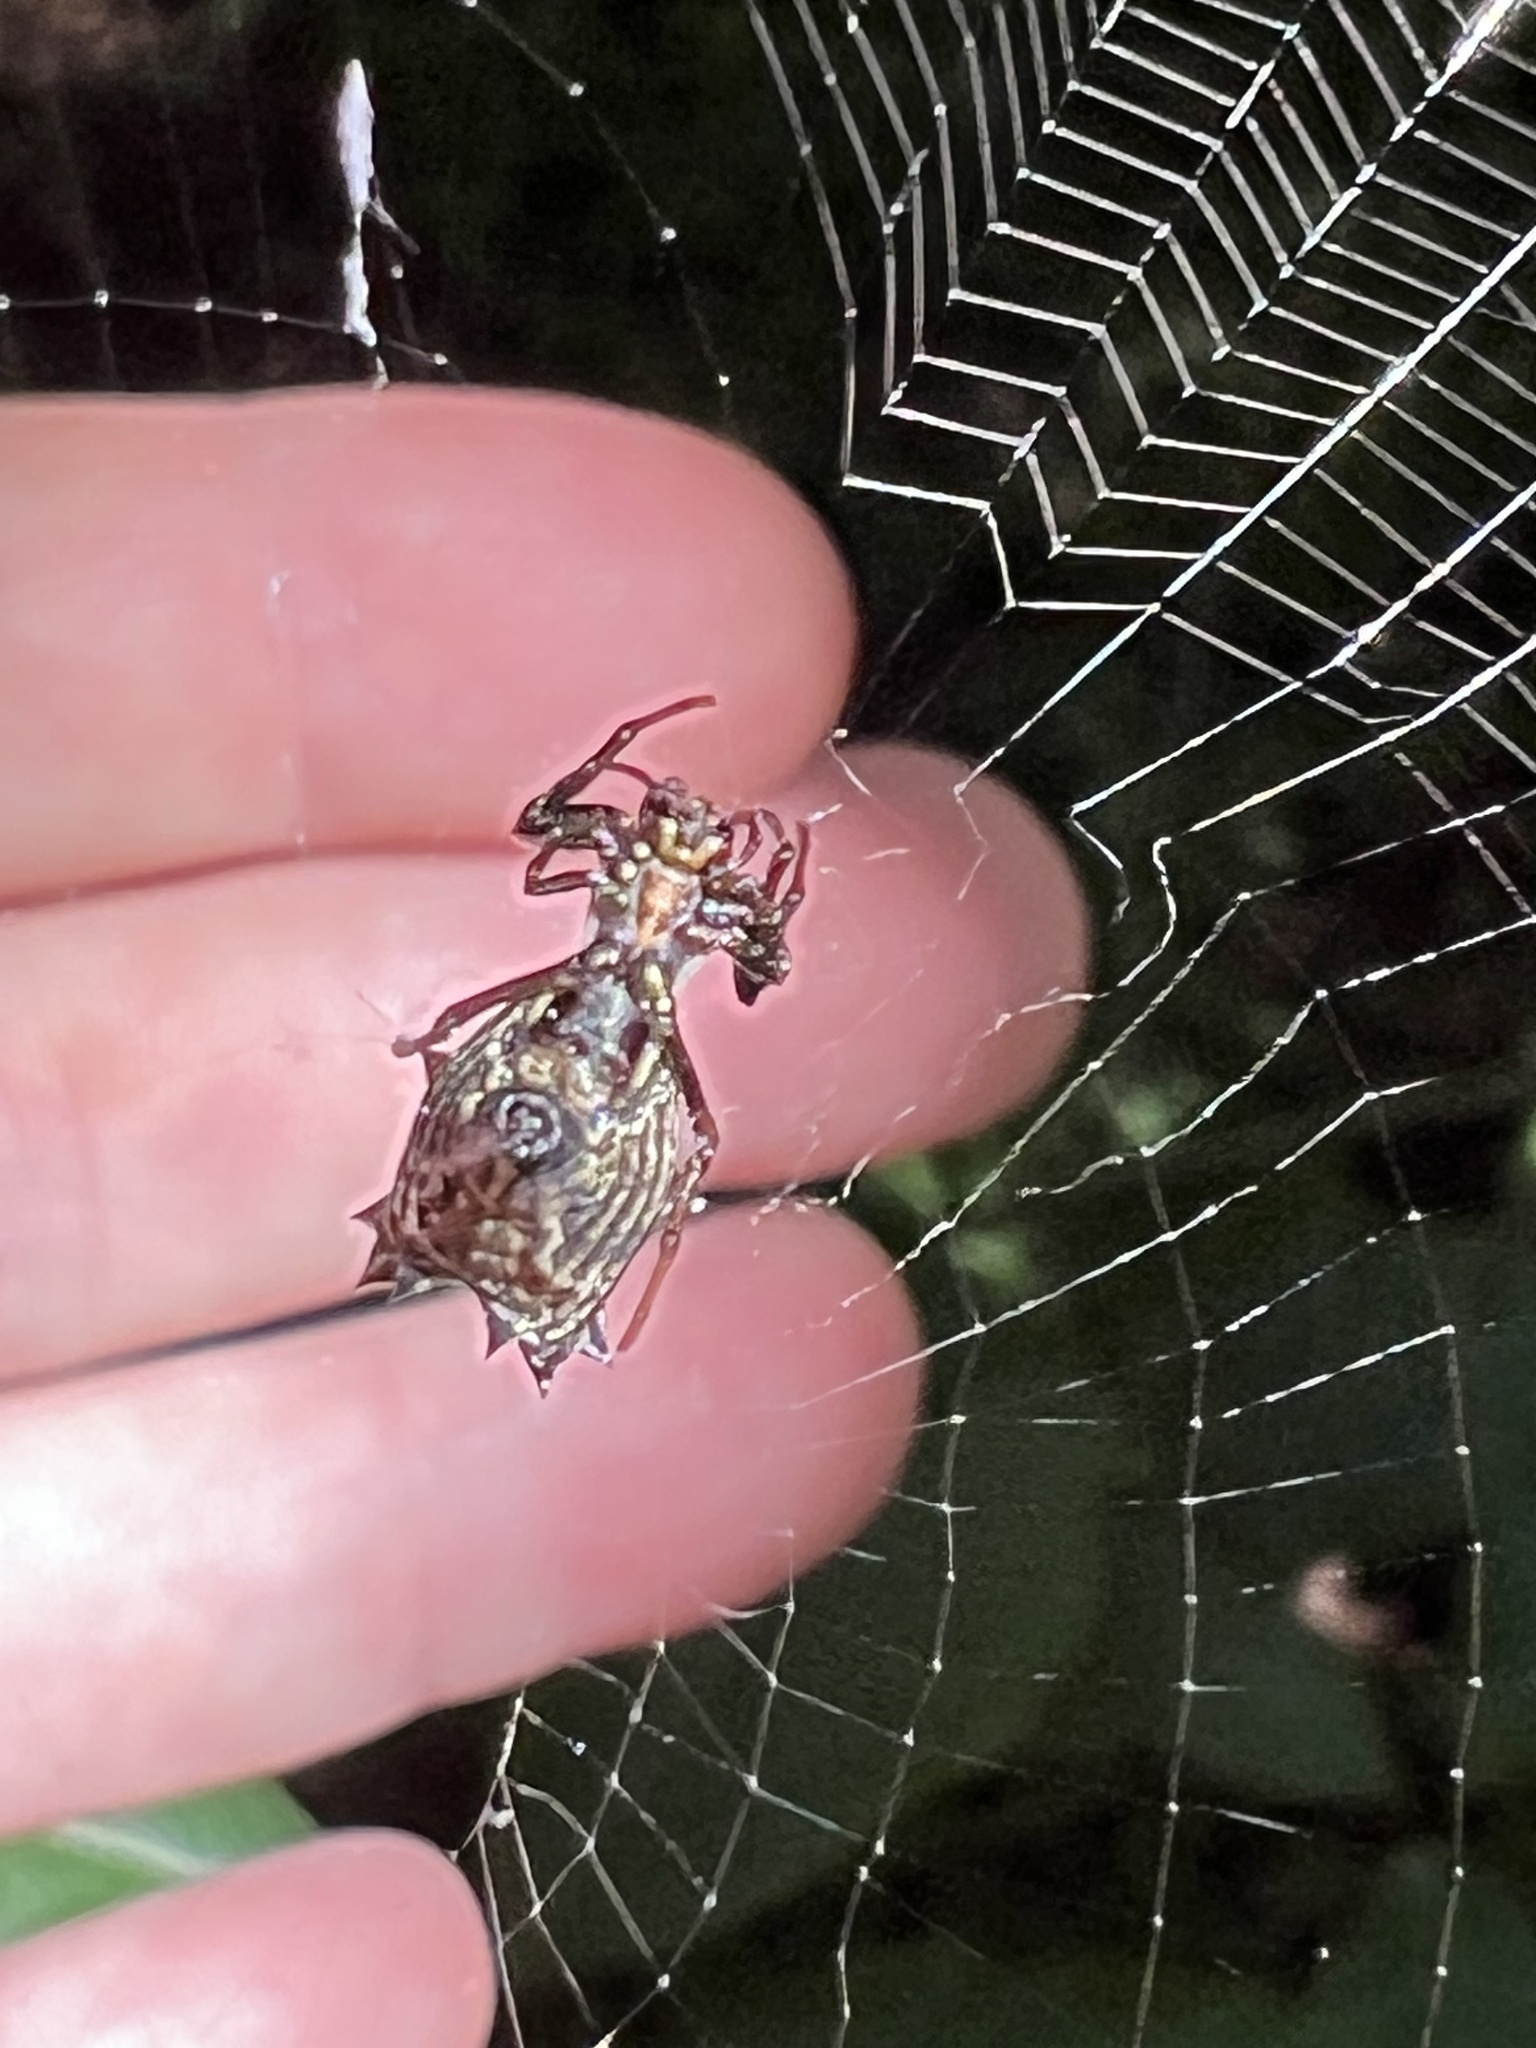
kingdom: Animalia
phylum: Arthropoda
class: Arachnida
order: Araneae
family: Araneidae
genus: Micrathena
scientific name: Micrathena gracilis
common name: Orb weavers
